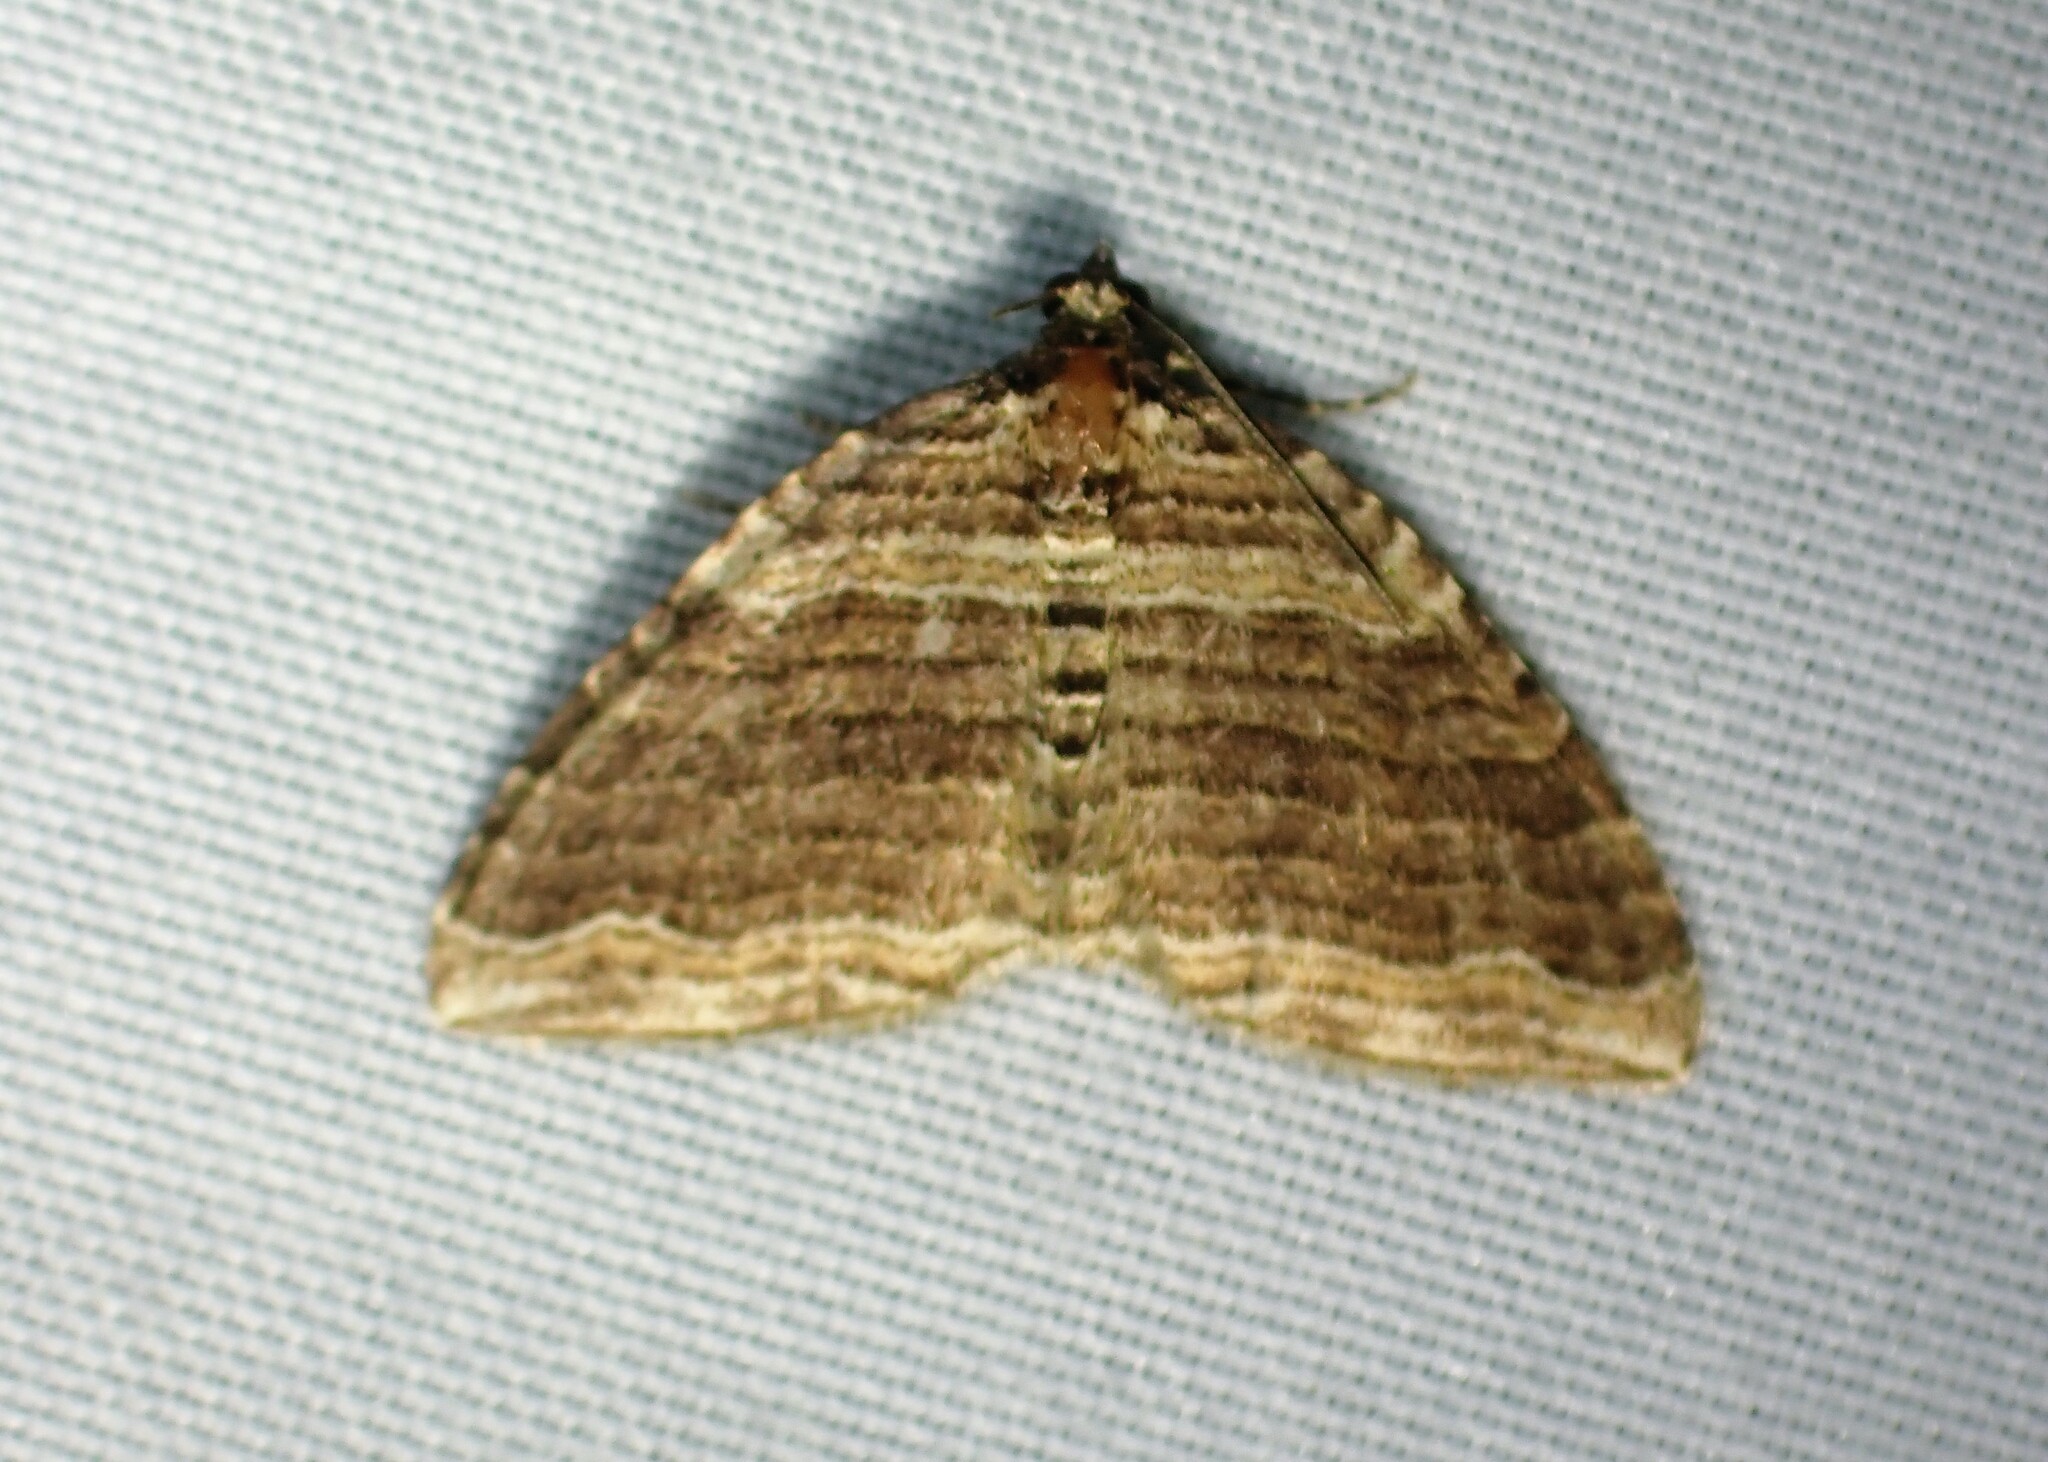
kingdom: Animalia
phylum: Arthropoda
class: Insecta
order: Lepidoptera
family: Geometridae
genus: Anticlea
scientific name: Anticlea multiferata
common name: Many-lined carpet
